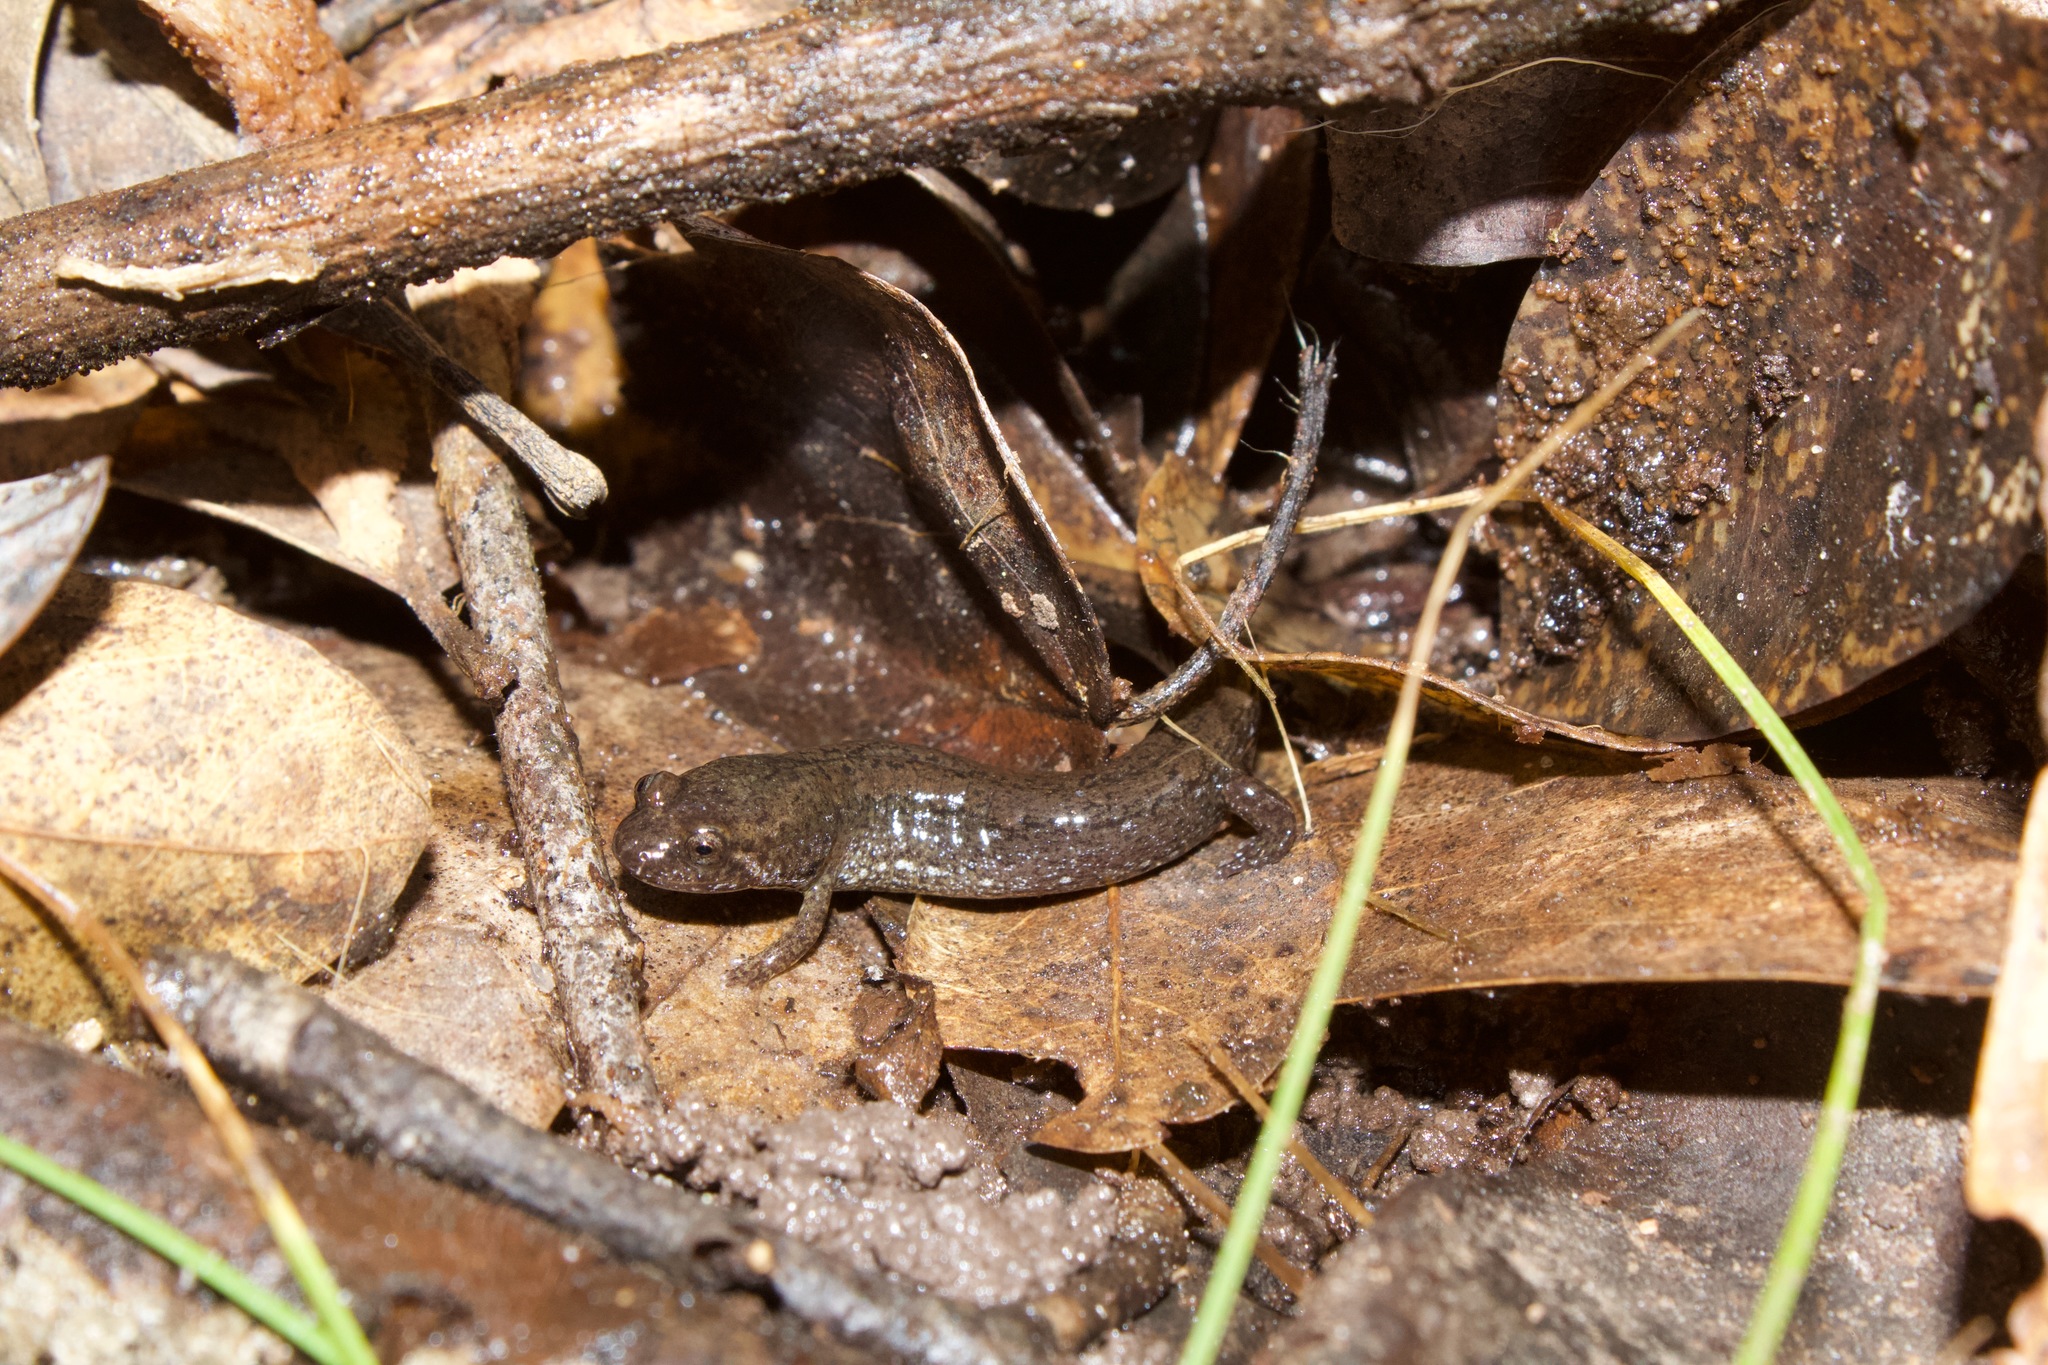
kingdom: Animalia
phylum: Chordata
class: Amphibia
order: Caudata
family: Plethodontidae
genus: Desmognathus
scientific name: Desmognathus valentinei
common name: Valentine's southern dusky salamander
